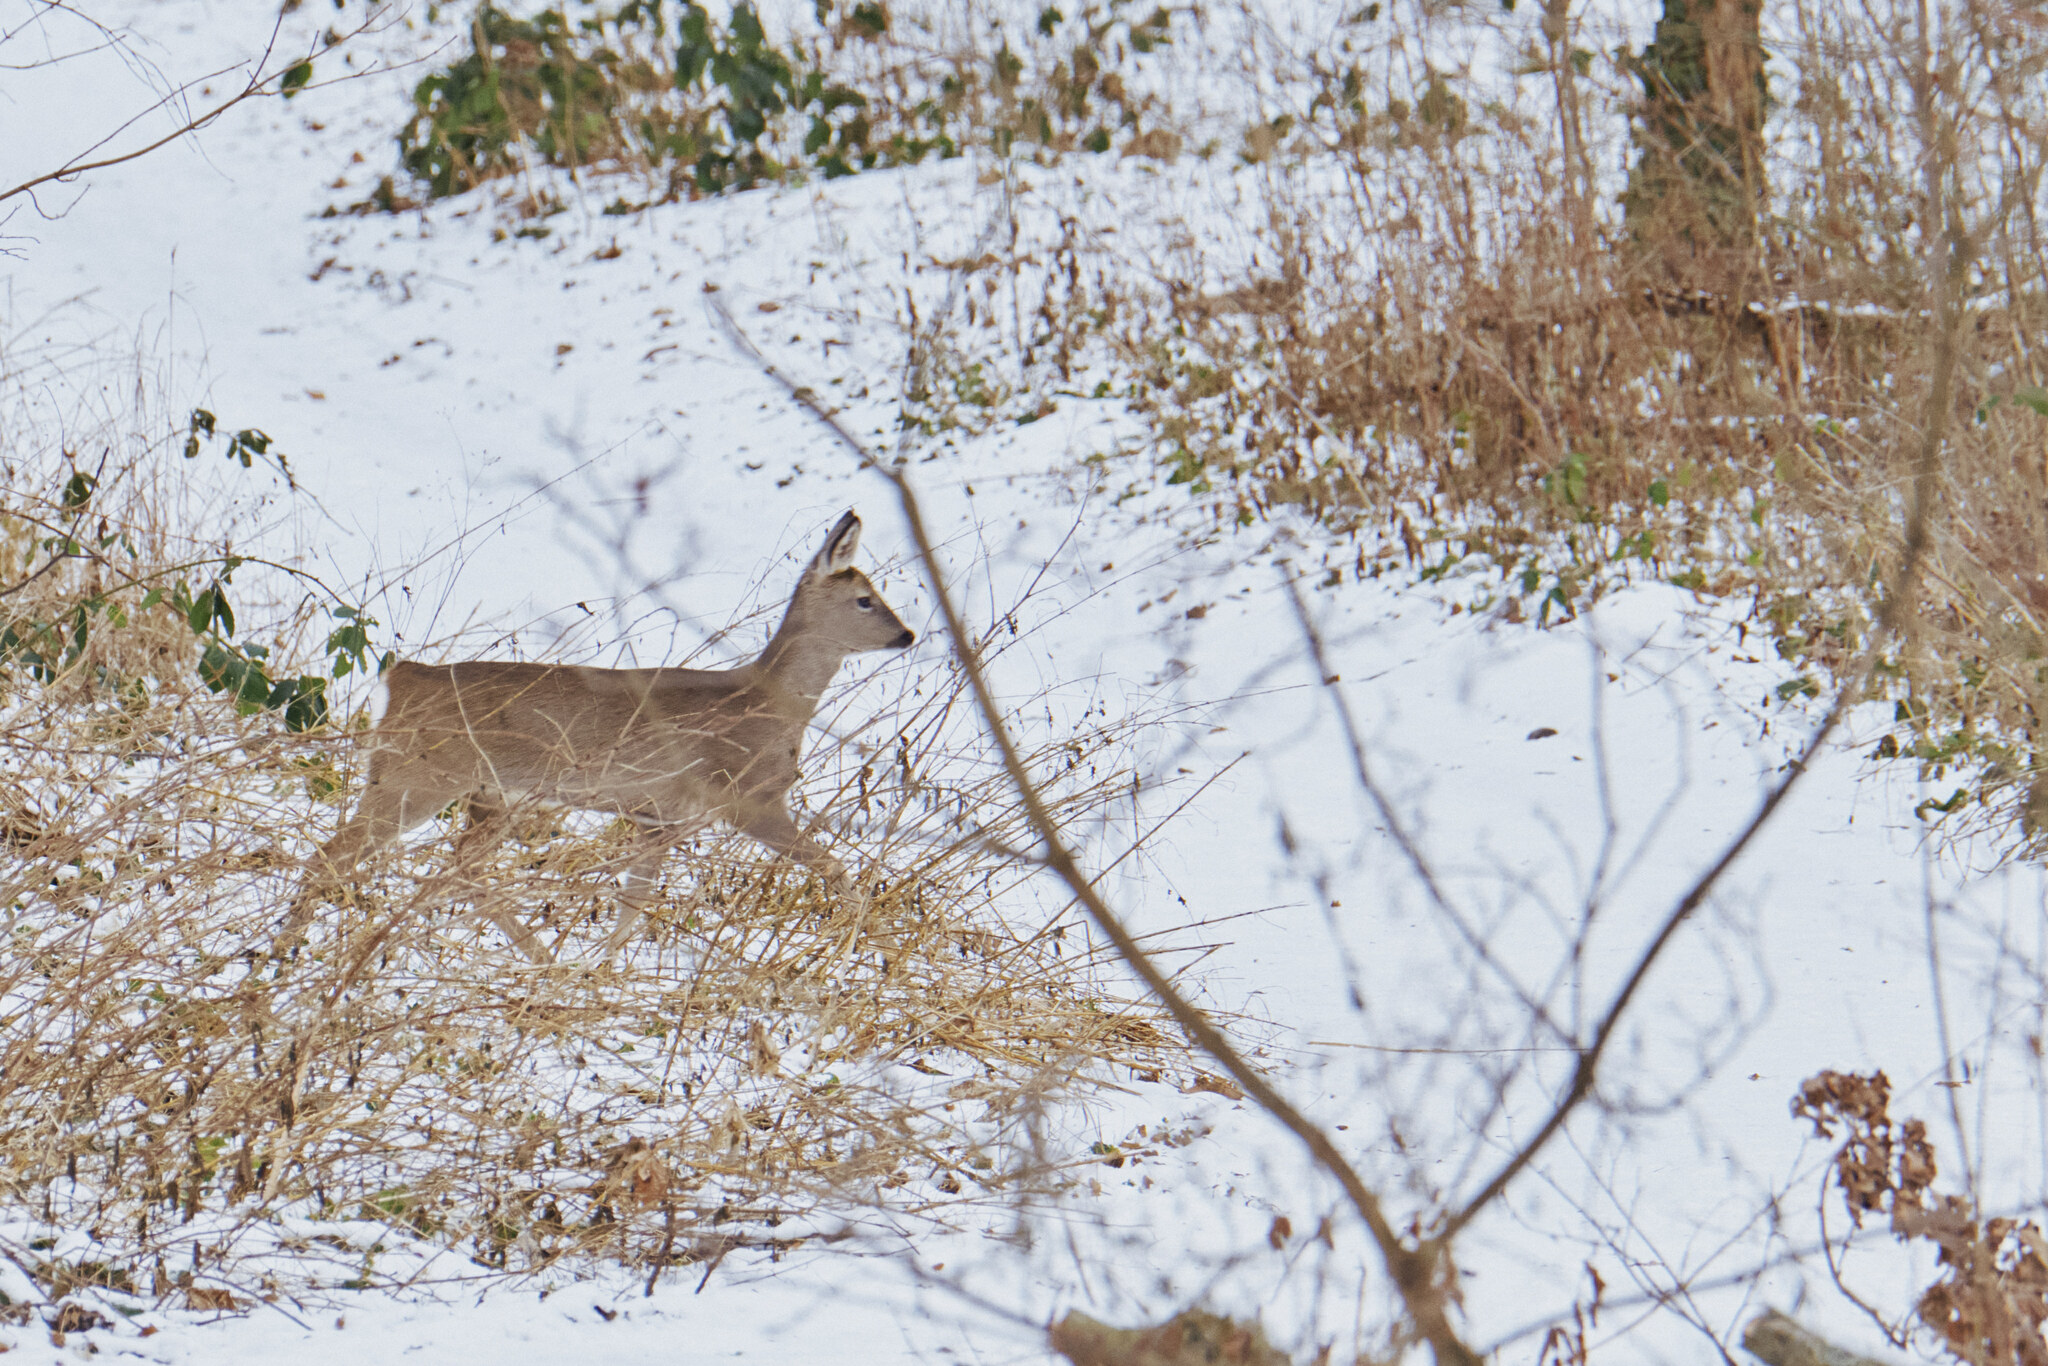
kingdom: Animalia
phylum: Chordata
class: Mammalia
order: Artiodactyla
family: Cervidae
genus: Capreolus
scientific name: Capreolus capreolus
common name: Western roe deer
